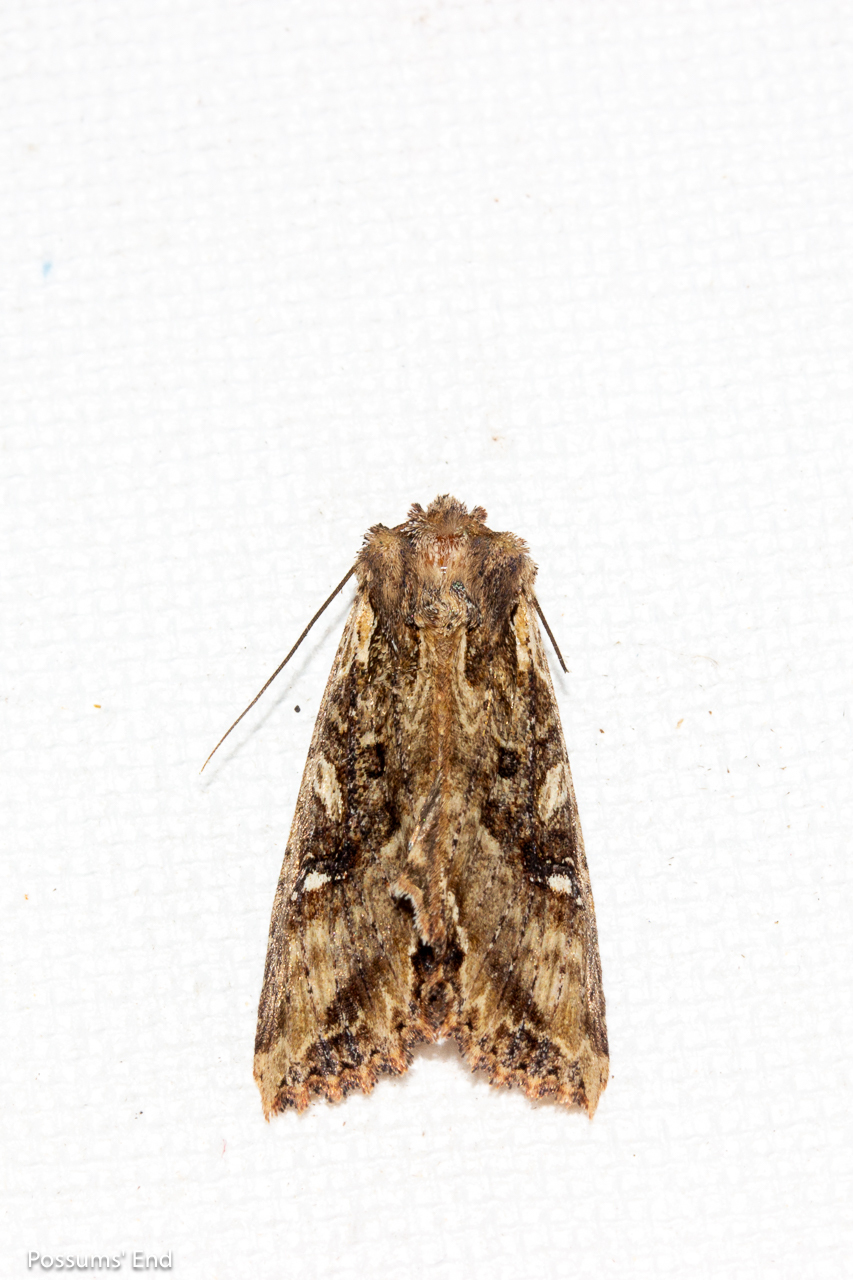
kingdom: Animalia
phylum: Arthropoda
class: Insecta
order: Lepidoptera
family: Noctuidae
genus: Meterana
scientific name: Meterana stipata
